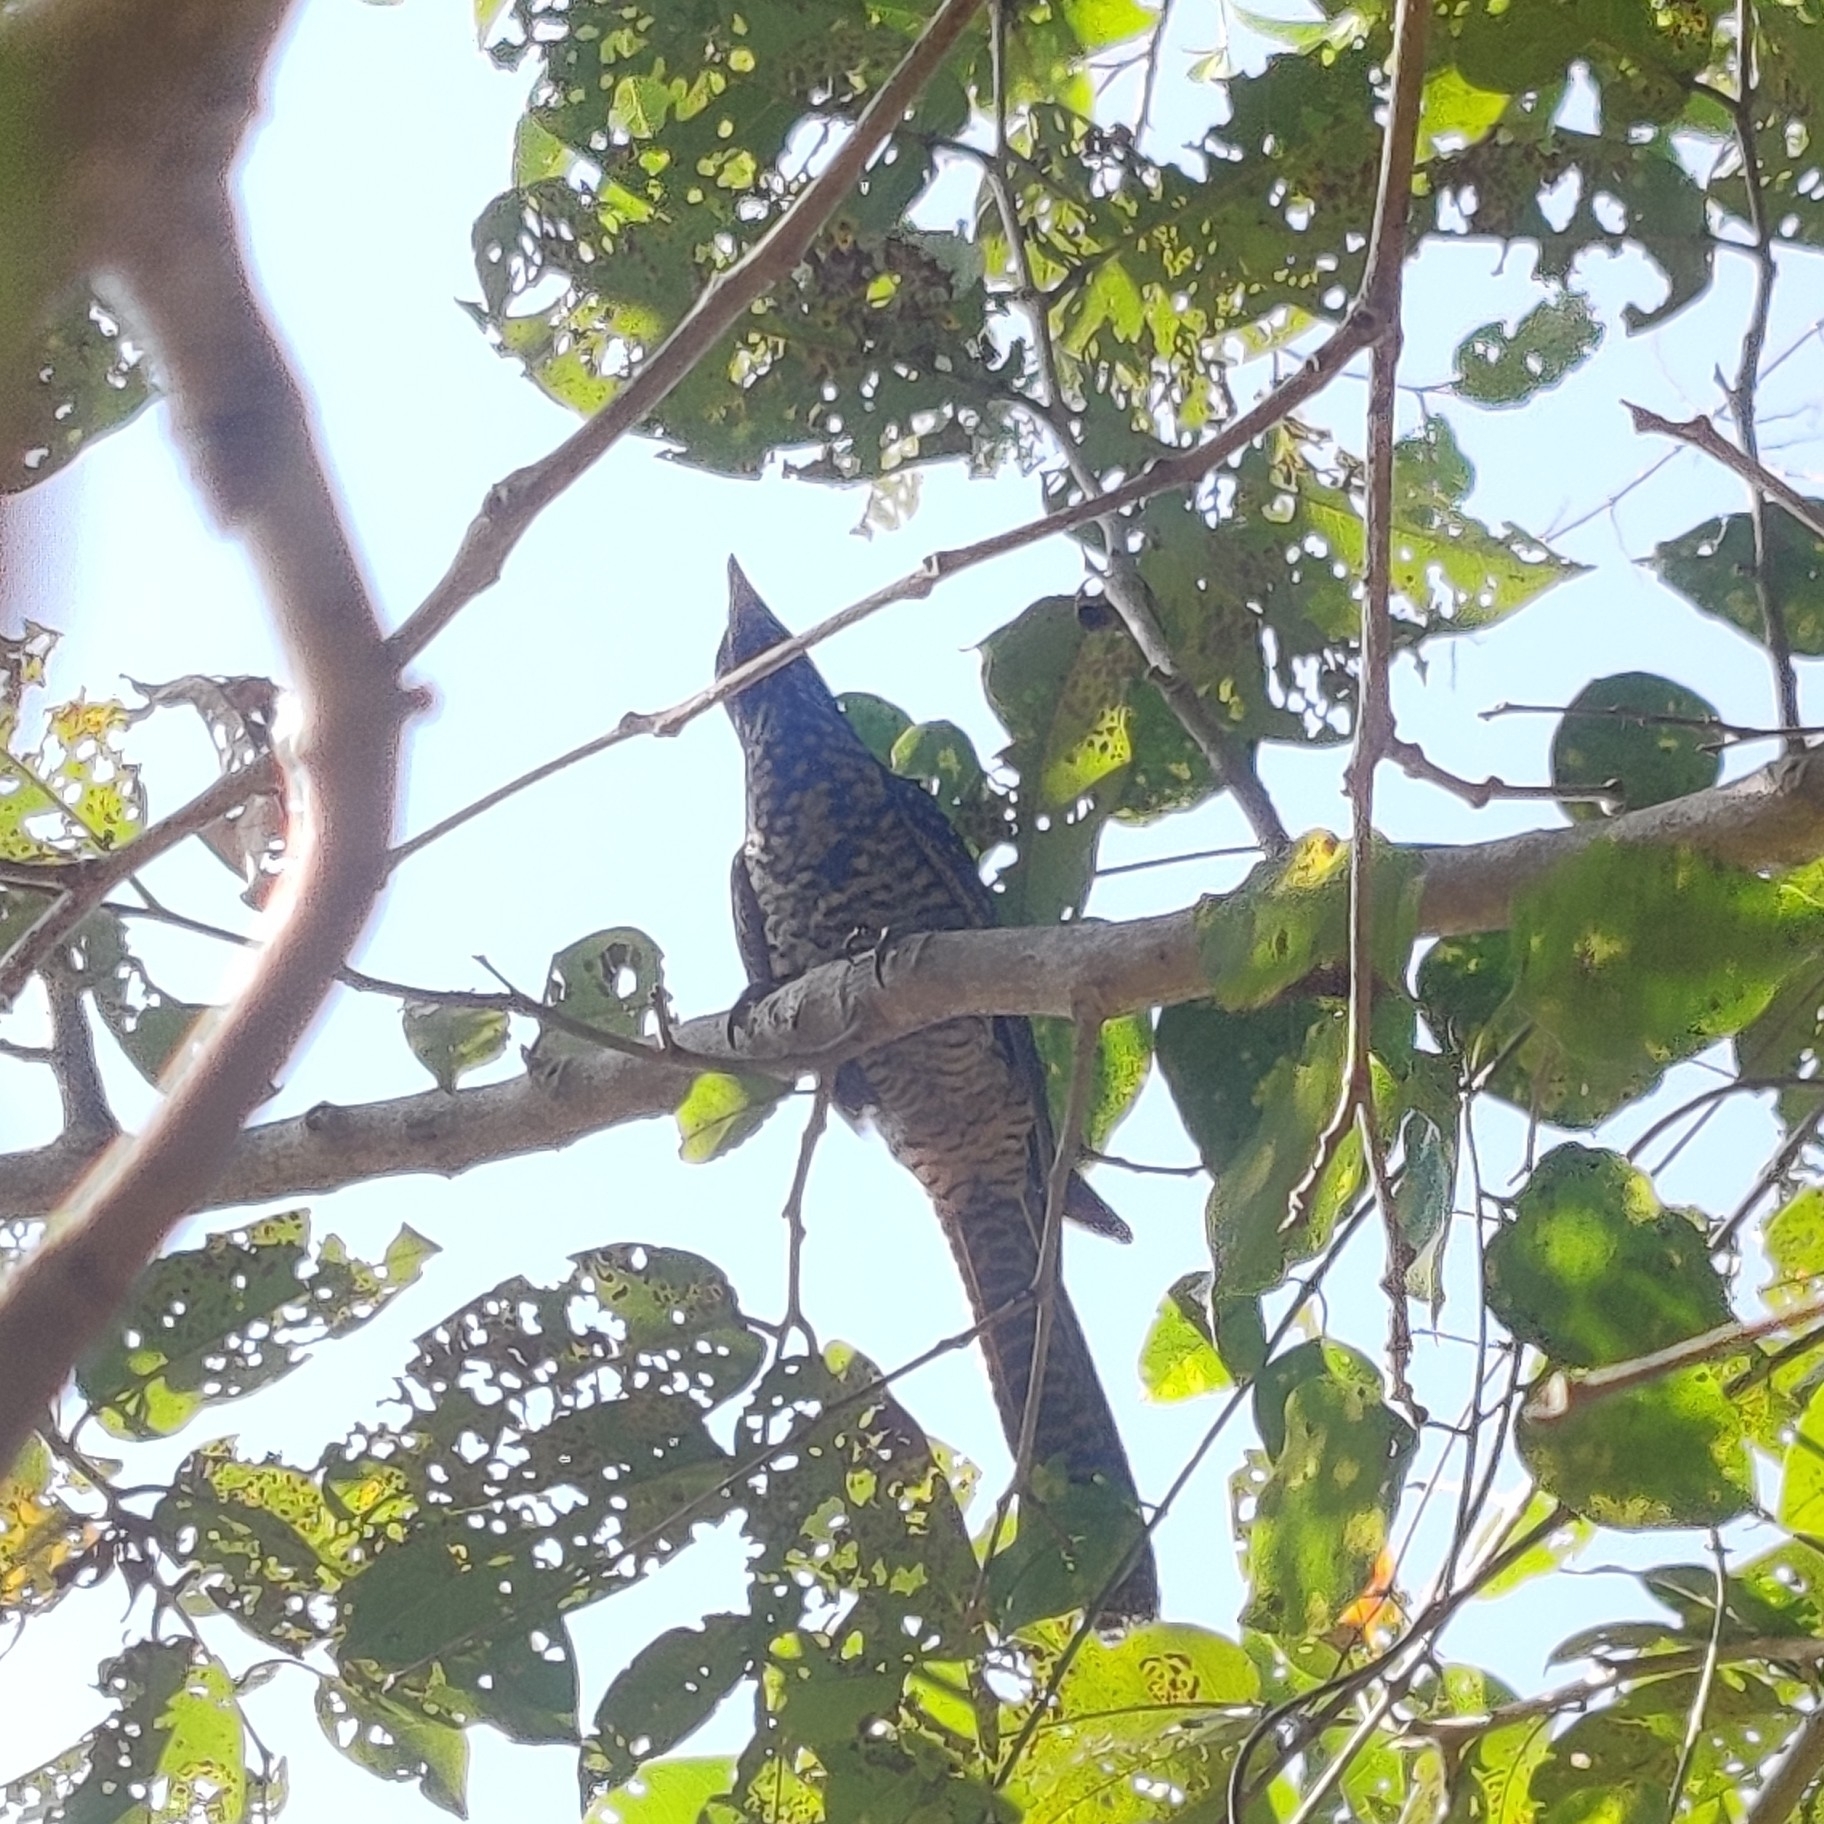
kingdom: Animalia
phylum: Chordata
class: Aves
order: Cuculiformes
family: Cuculidae
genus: Eudynamys
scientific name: Eudynamys scolopaceus
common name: Asian koel
